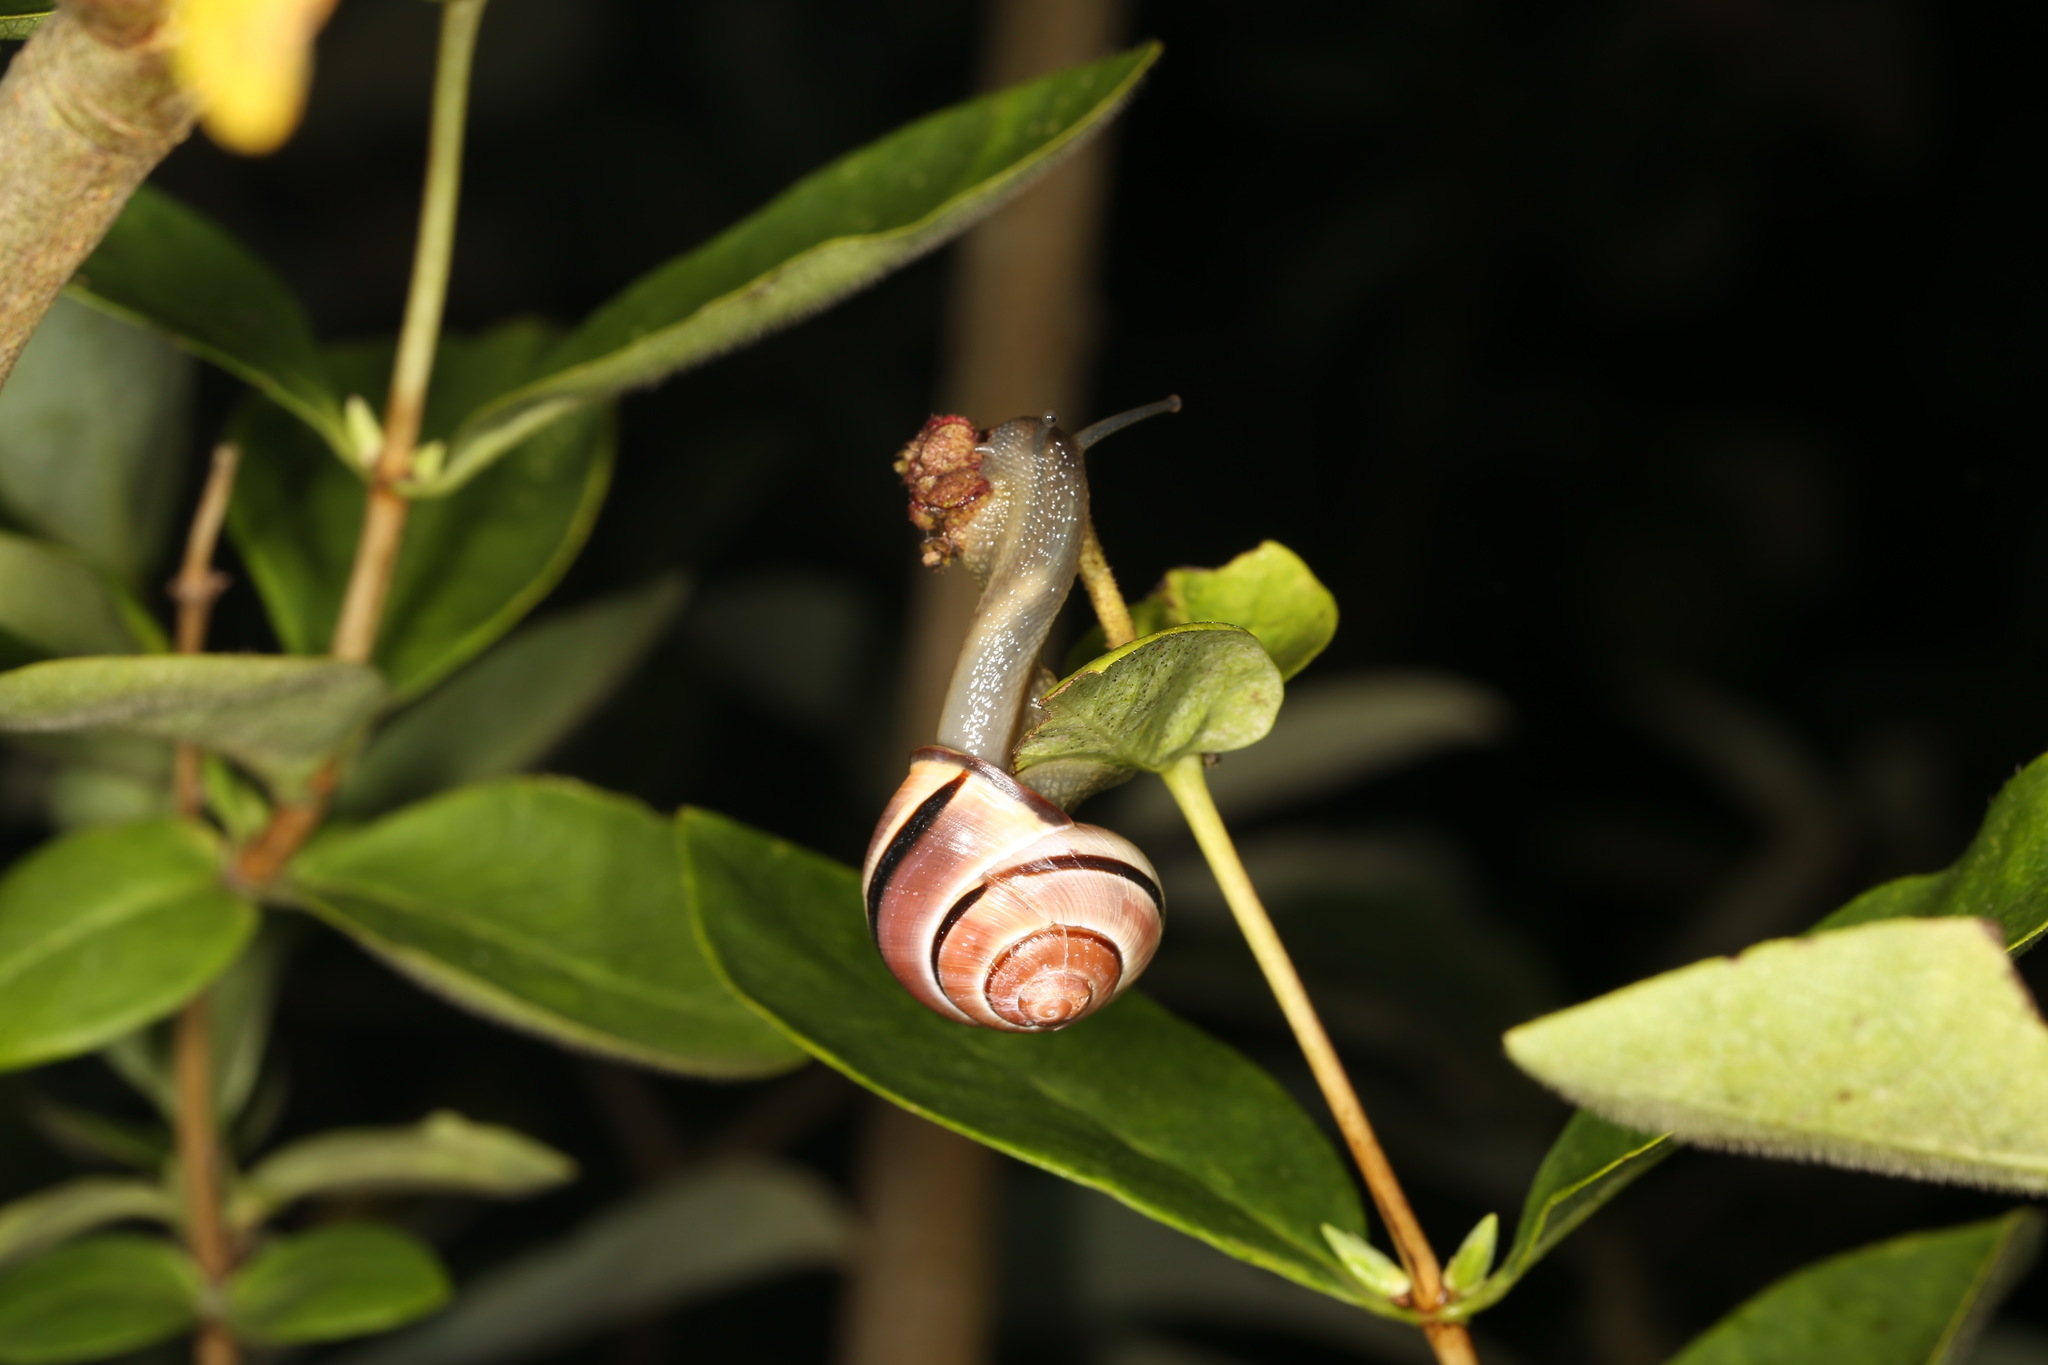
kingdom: Animalia
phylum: Mollusca
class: Gastropoda
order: Stylommatophora
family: Helicidae
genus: Cepaea
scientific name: Cepaea nemoralis
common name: Grovesnail
